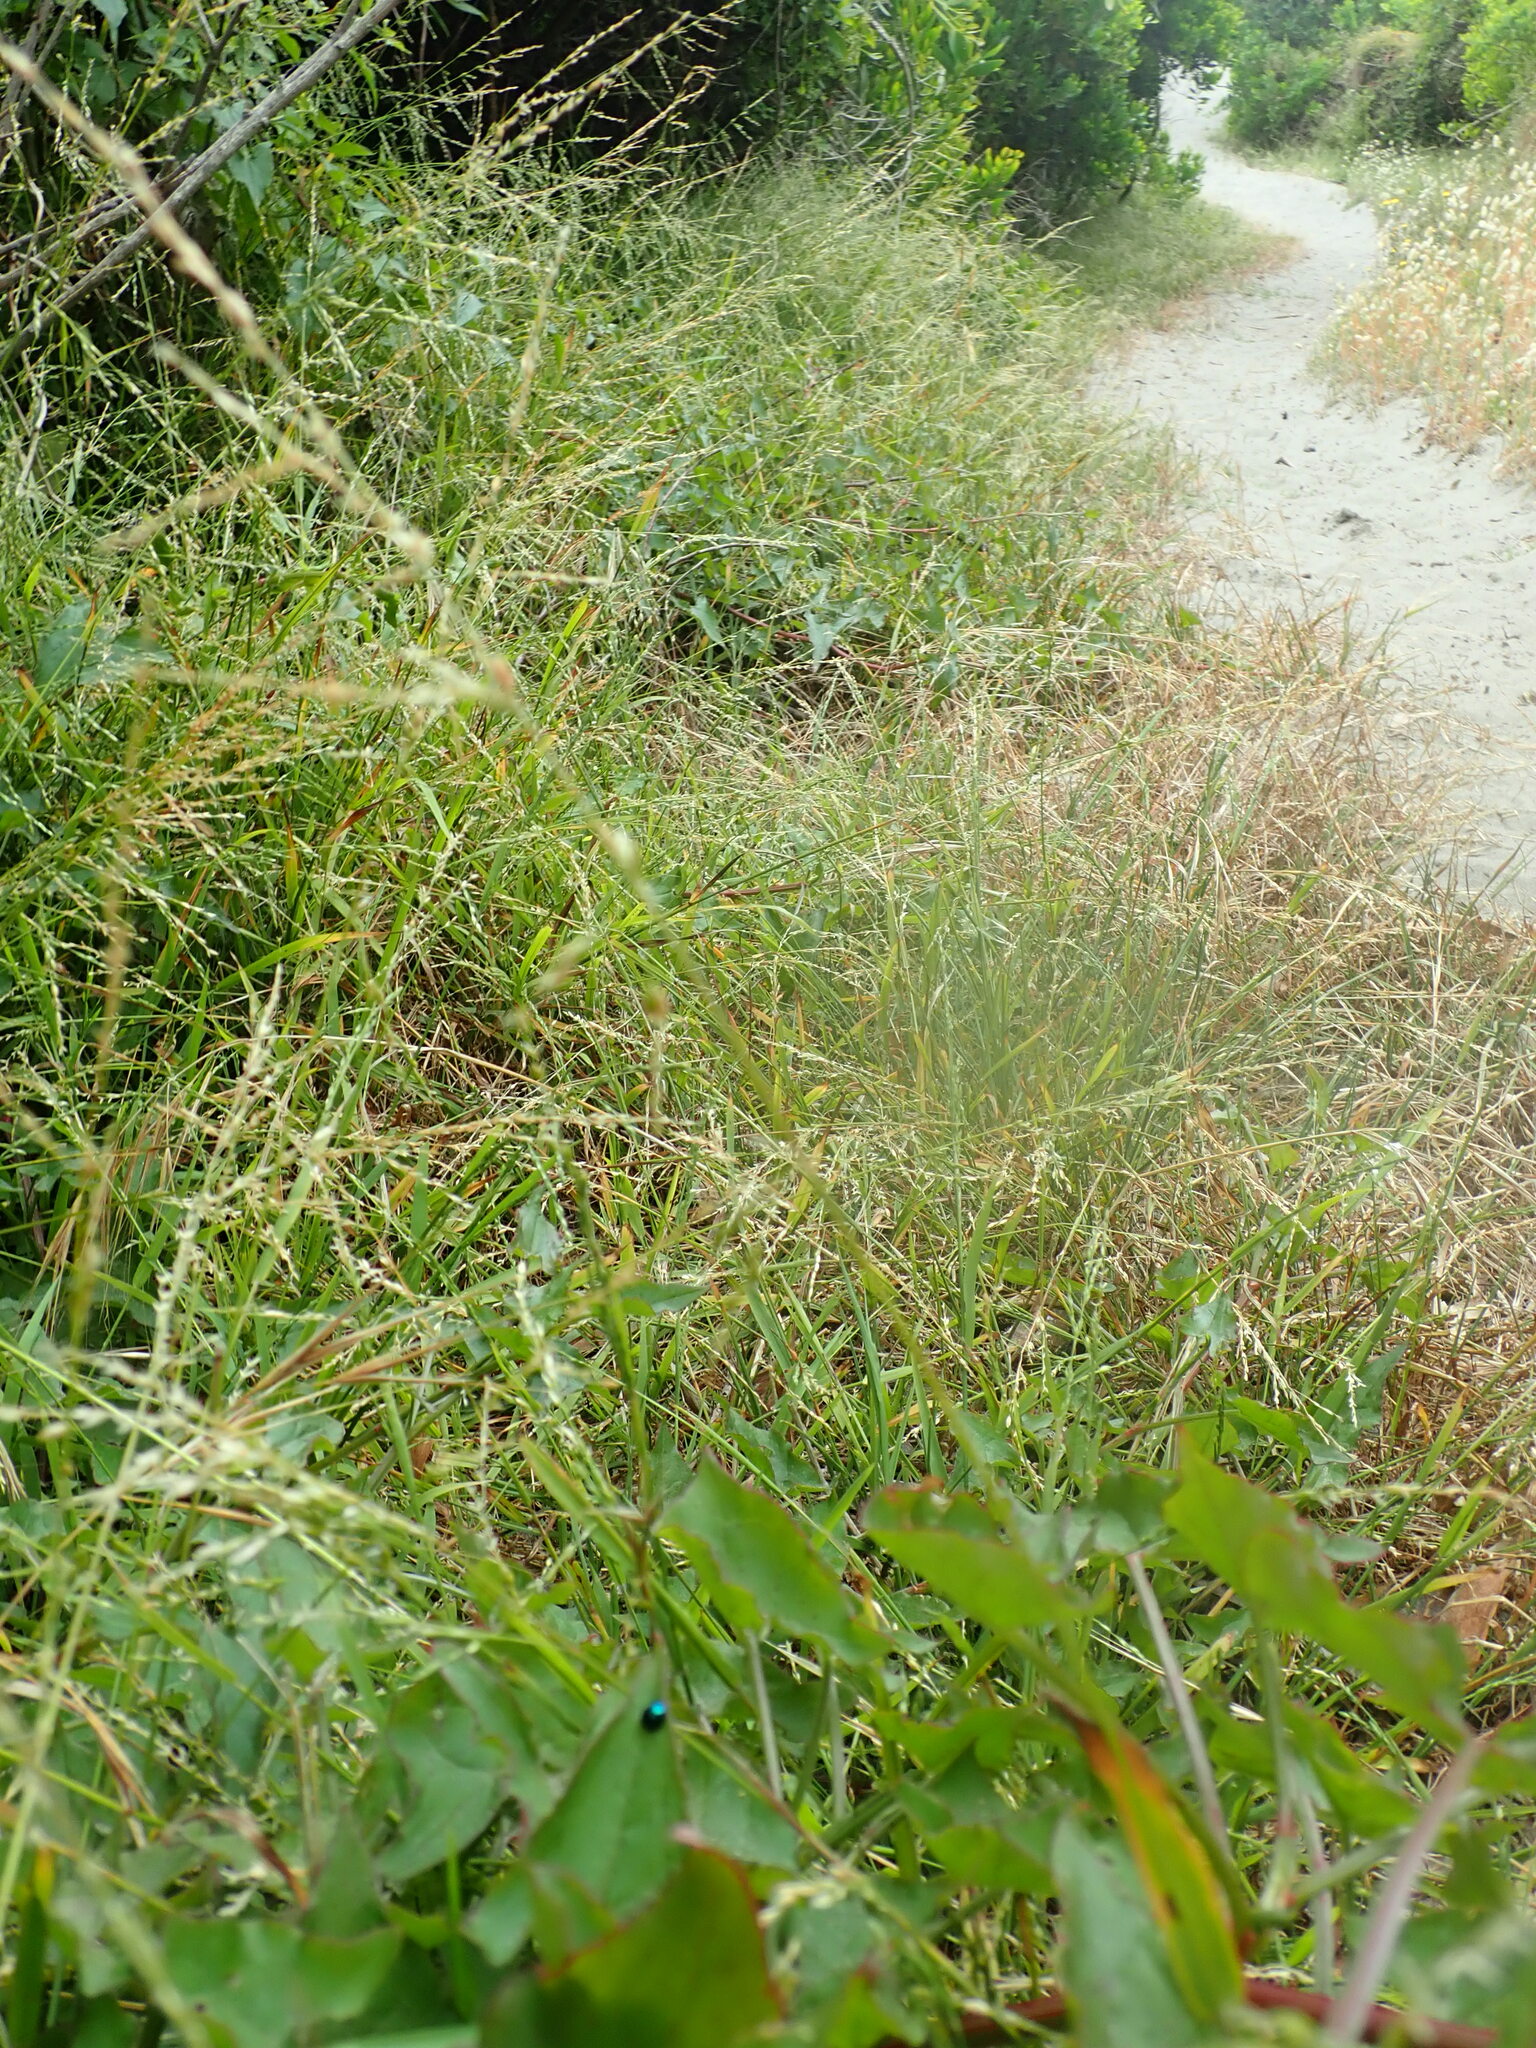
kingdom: Animalia
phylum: Arthropoda
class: Insecta
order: Coleoptera
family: Coccinellidae
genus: Halmus
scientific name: Halmus chalybeus
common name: Steel blue ladybird beetle
